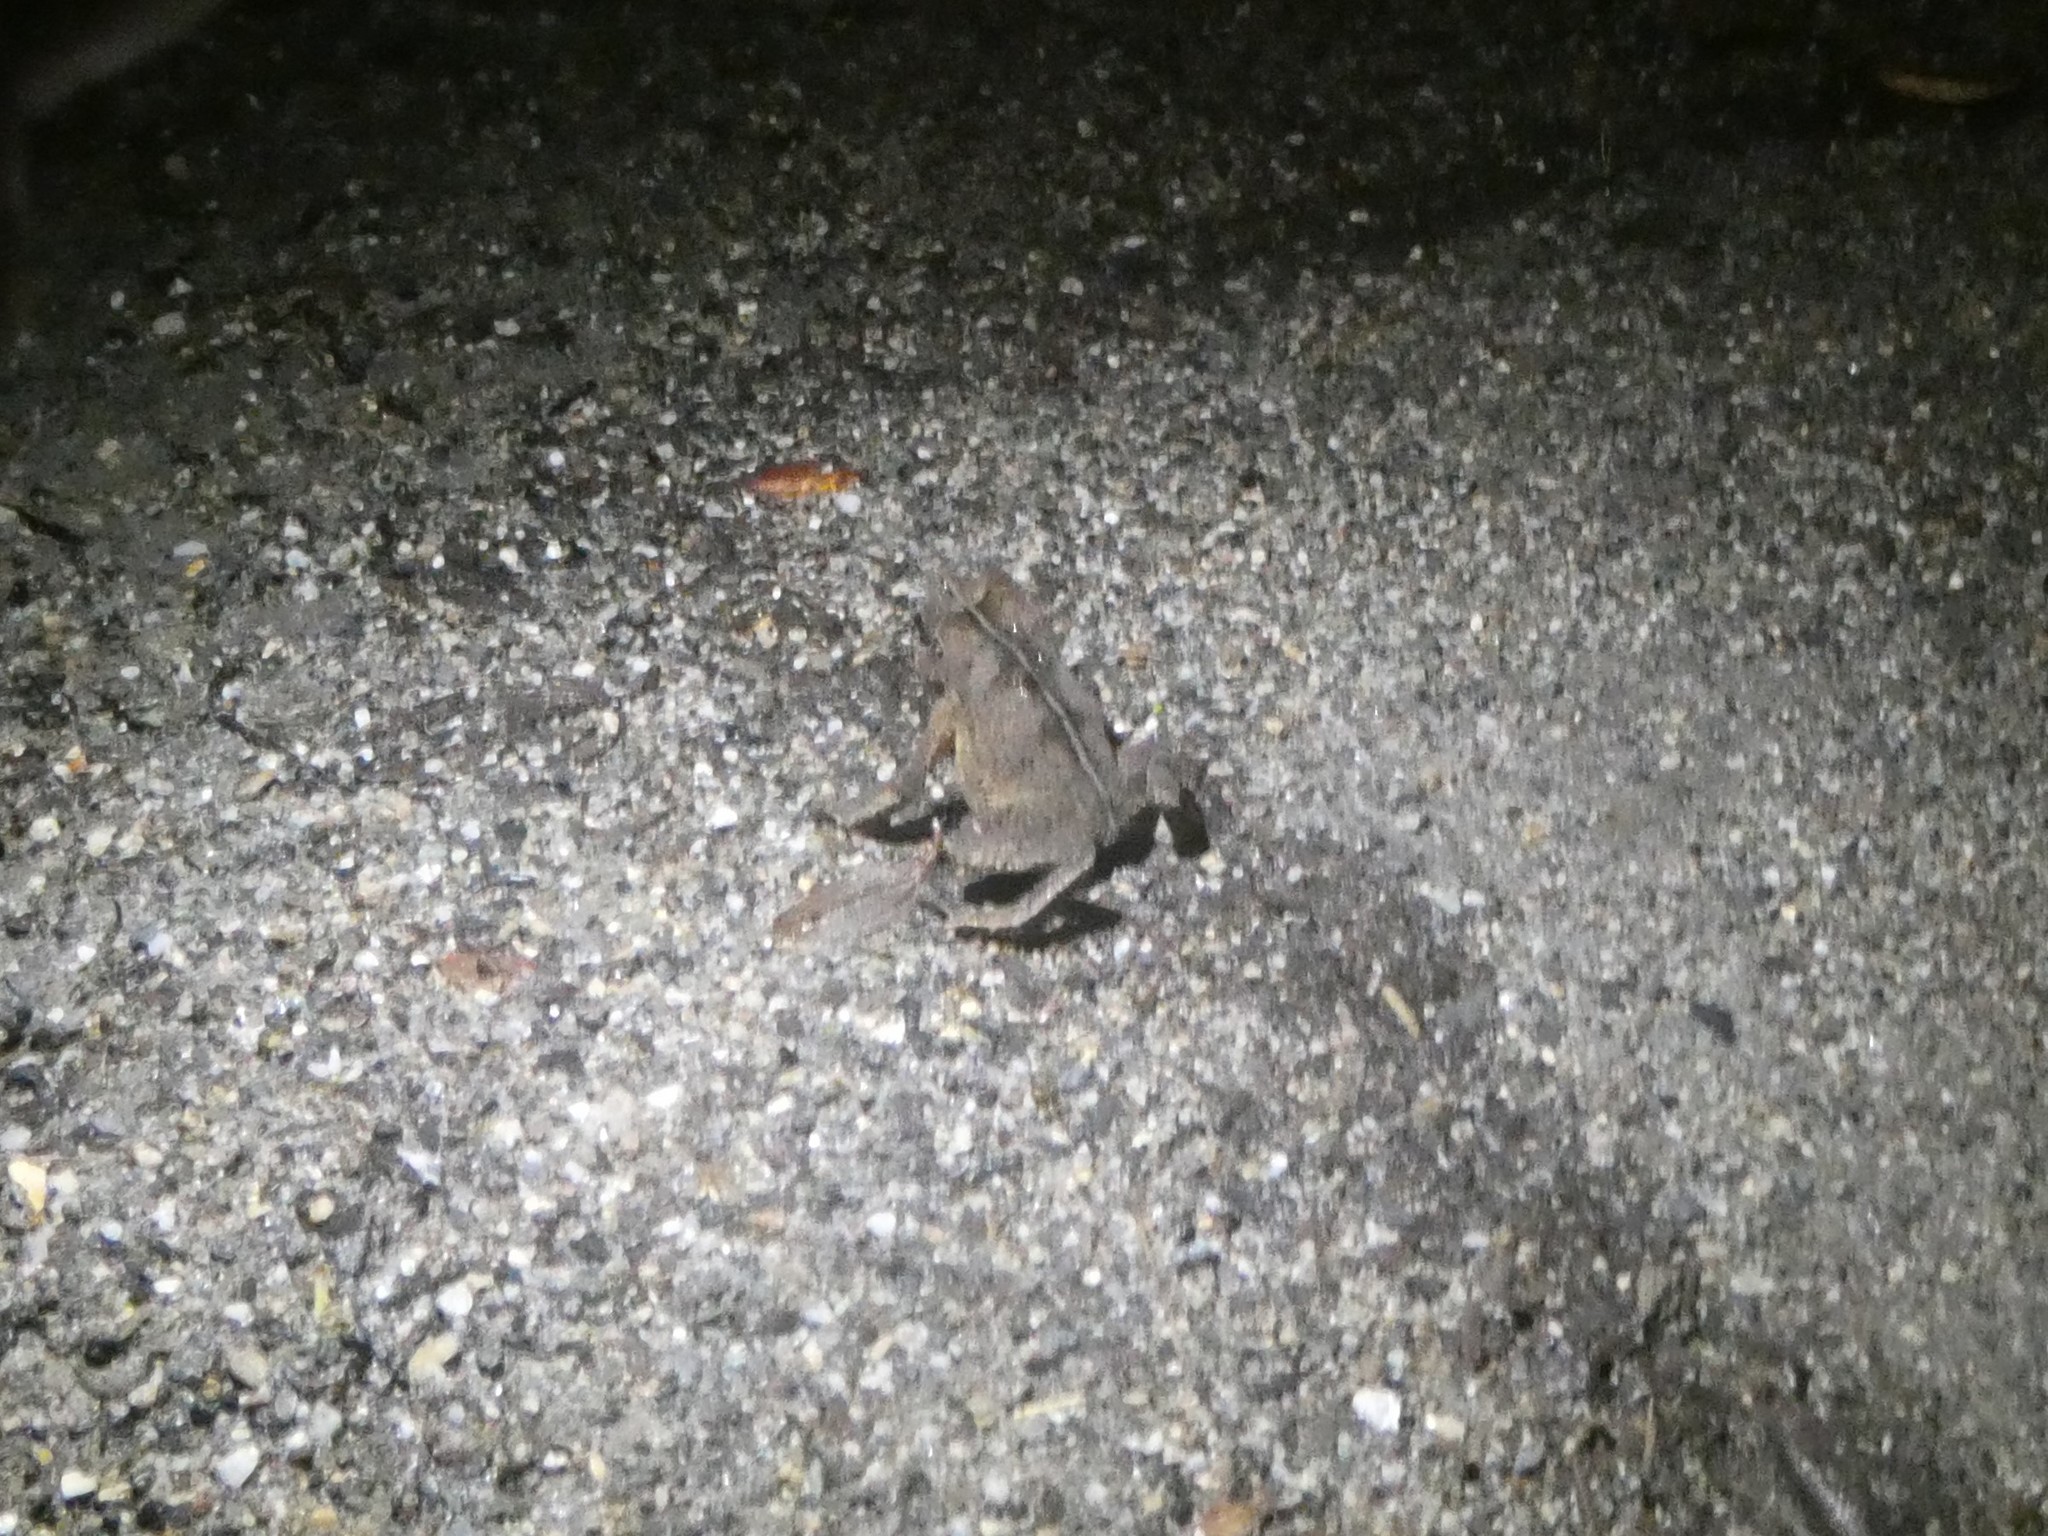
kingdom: Animalia
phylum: Chordata
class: Amphibia
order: Anura
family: Bufonidae
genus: Rhinella
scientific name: Rhinella margaritifera
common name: Mitred toad
